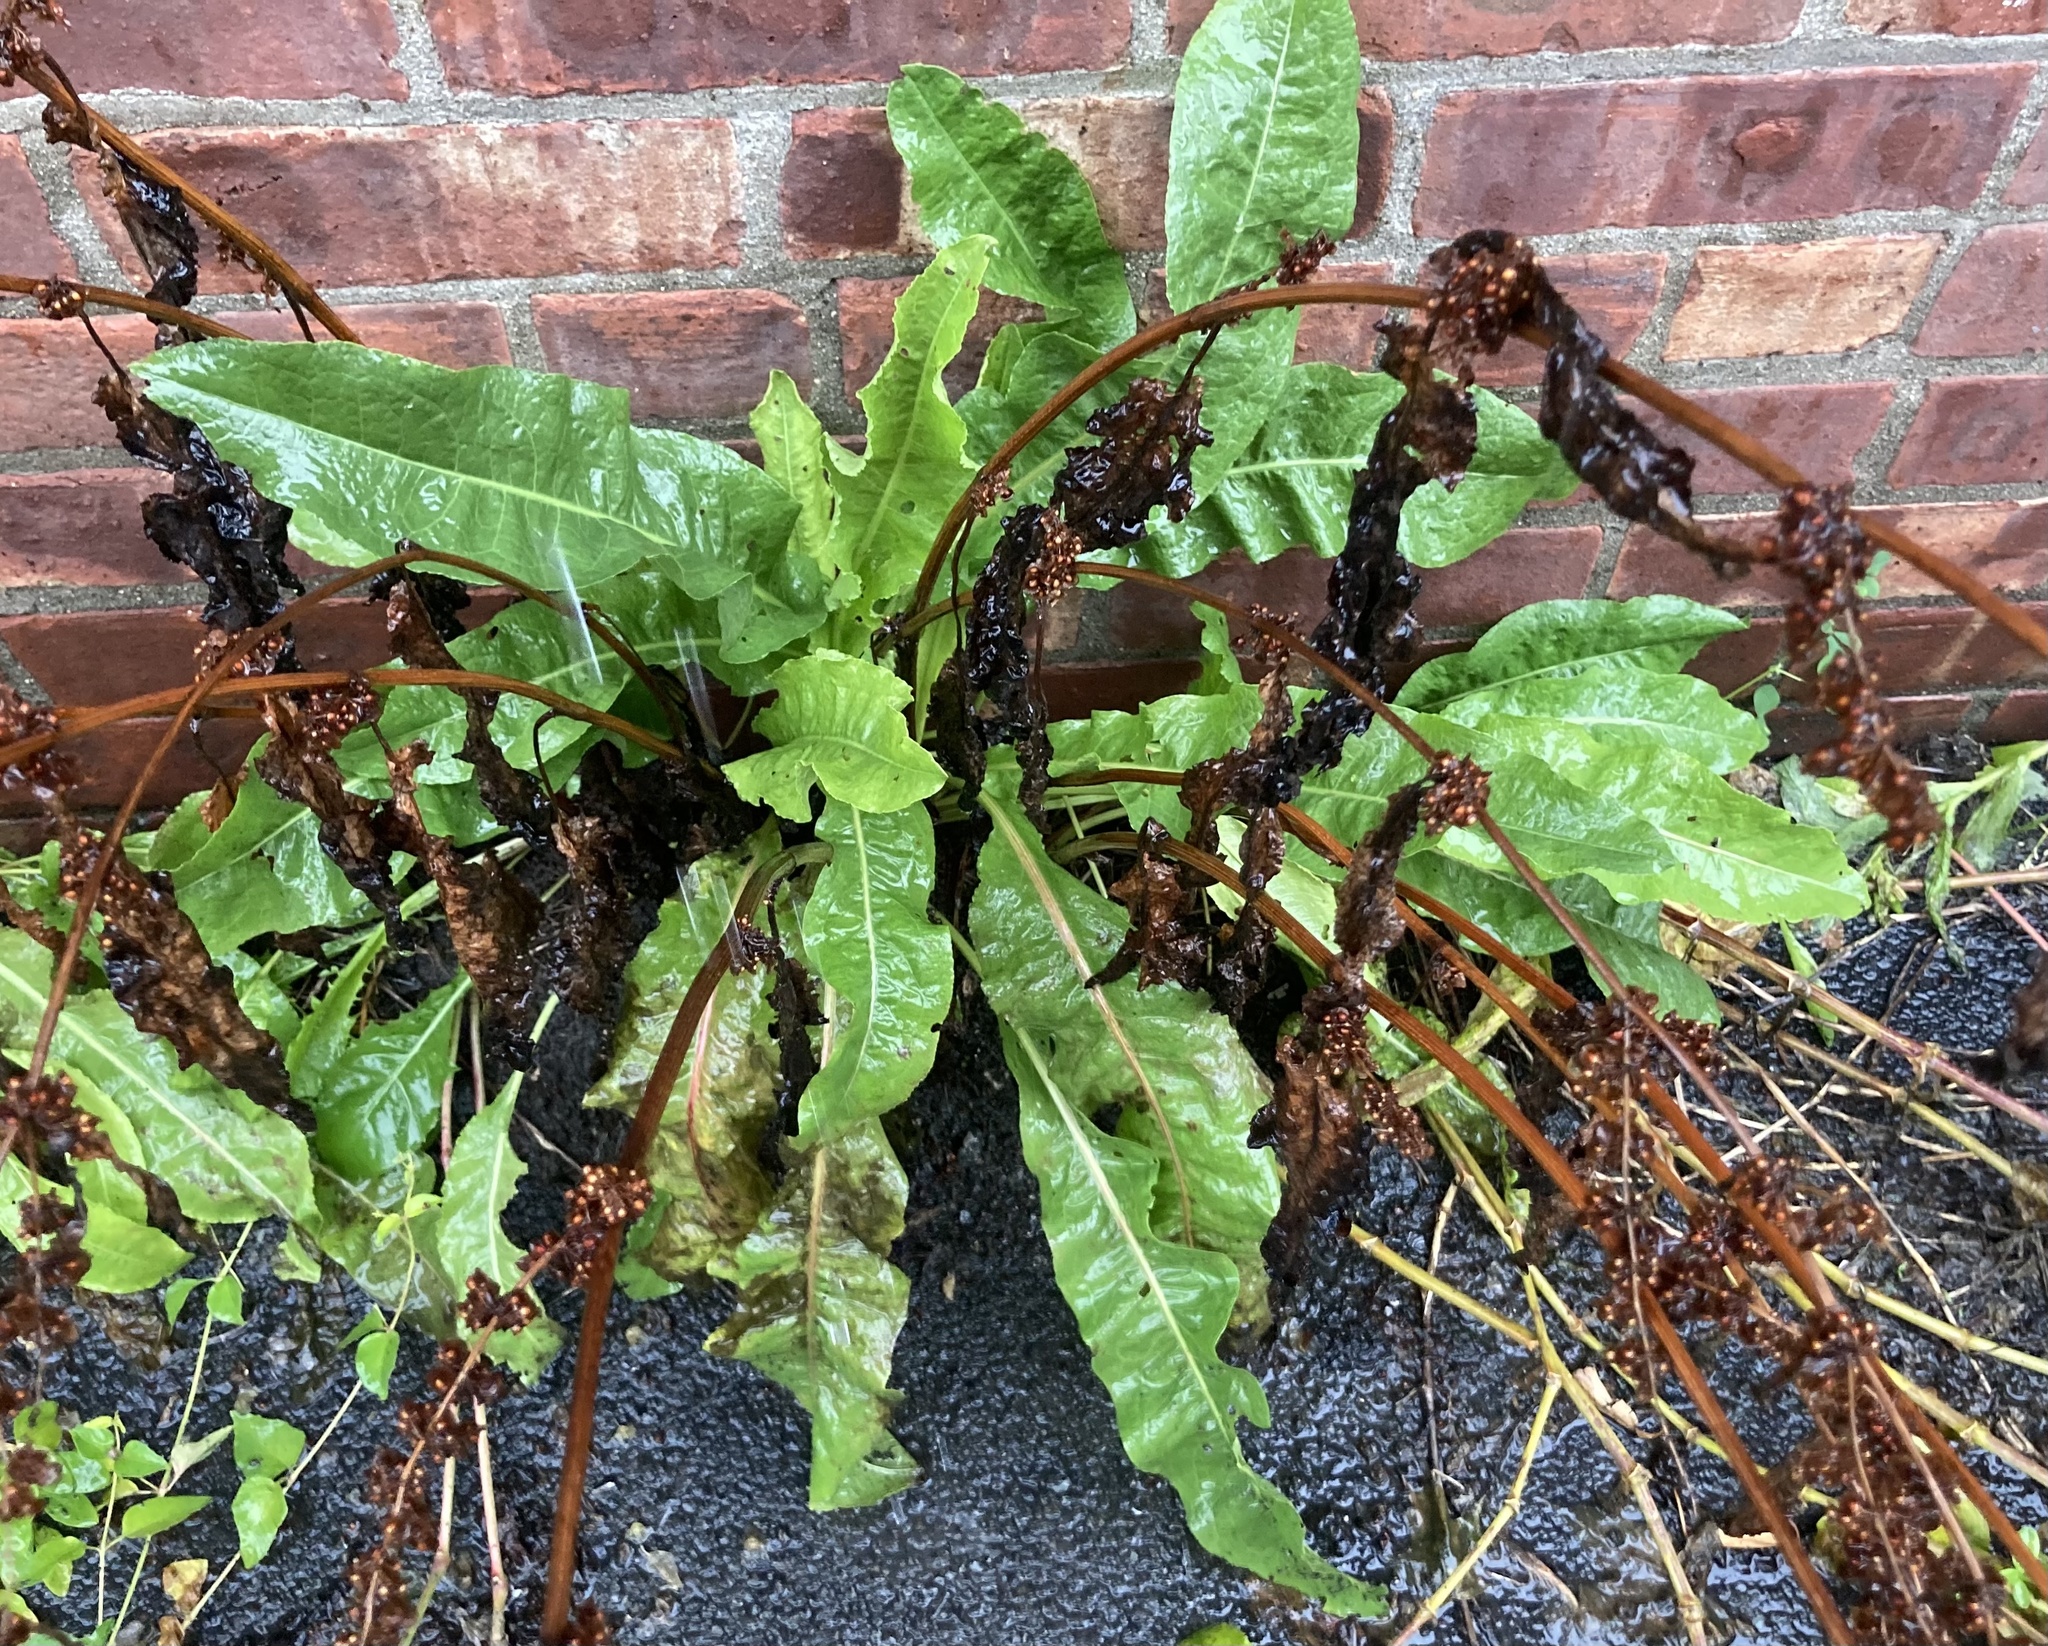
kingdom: Plantae
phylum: Tracheophyta
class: Magnoliopsida
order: Caryophyllales
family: Polygonaceae
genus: Rumex
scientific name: Rumex crispus
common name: Curled dock
